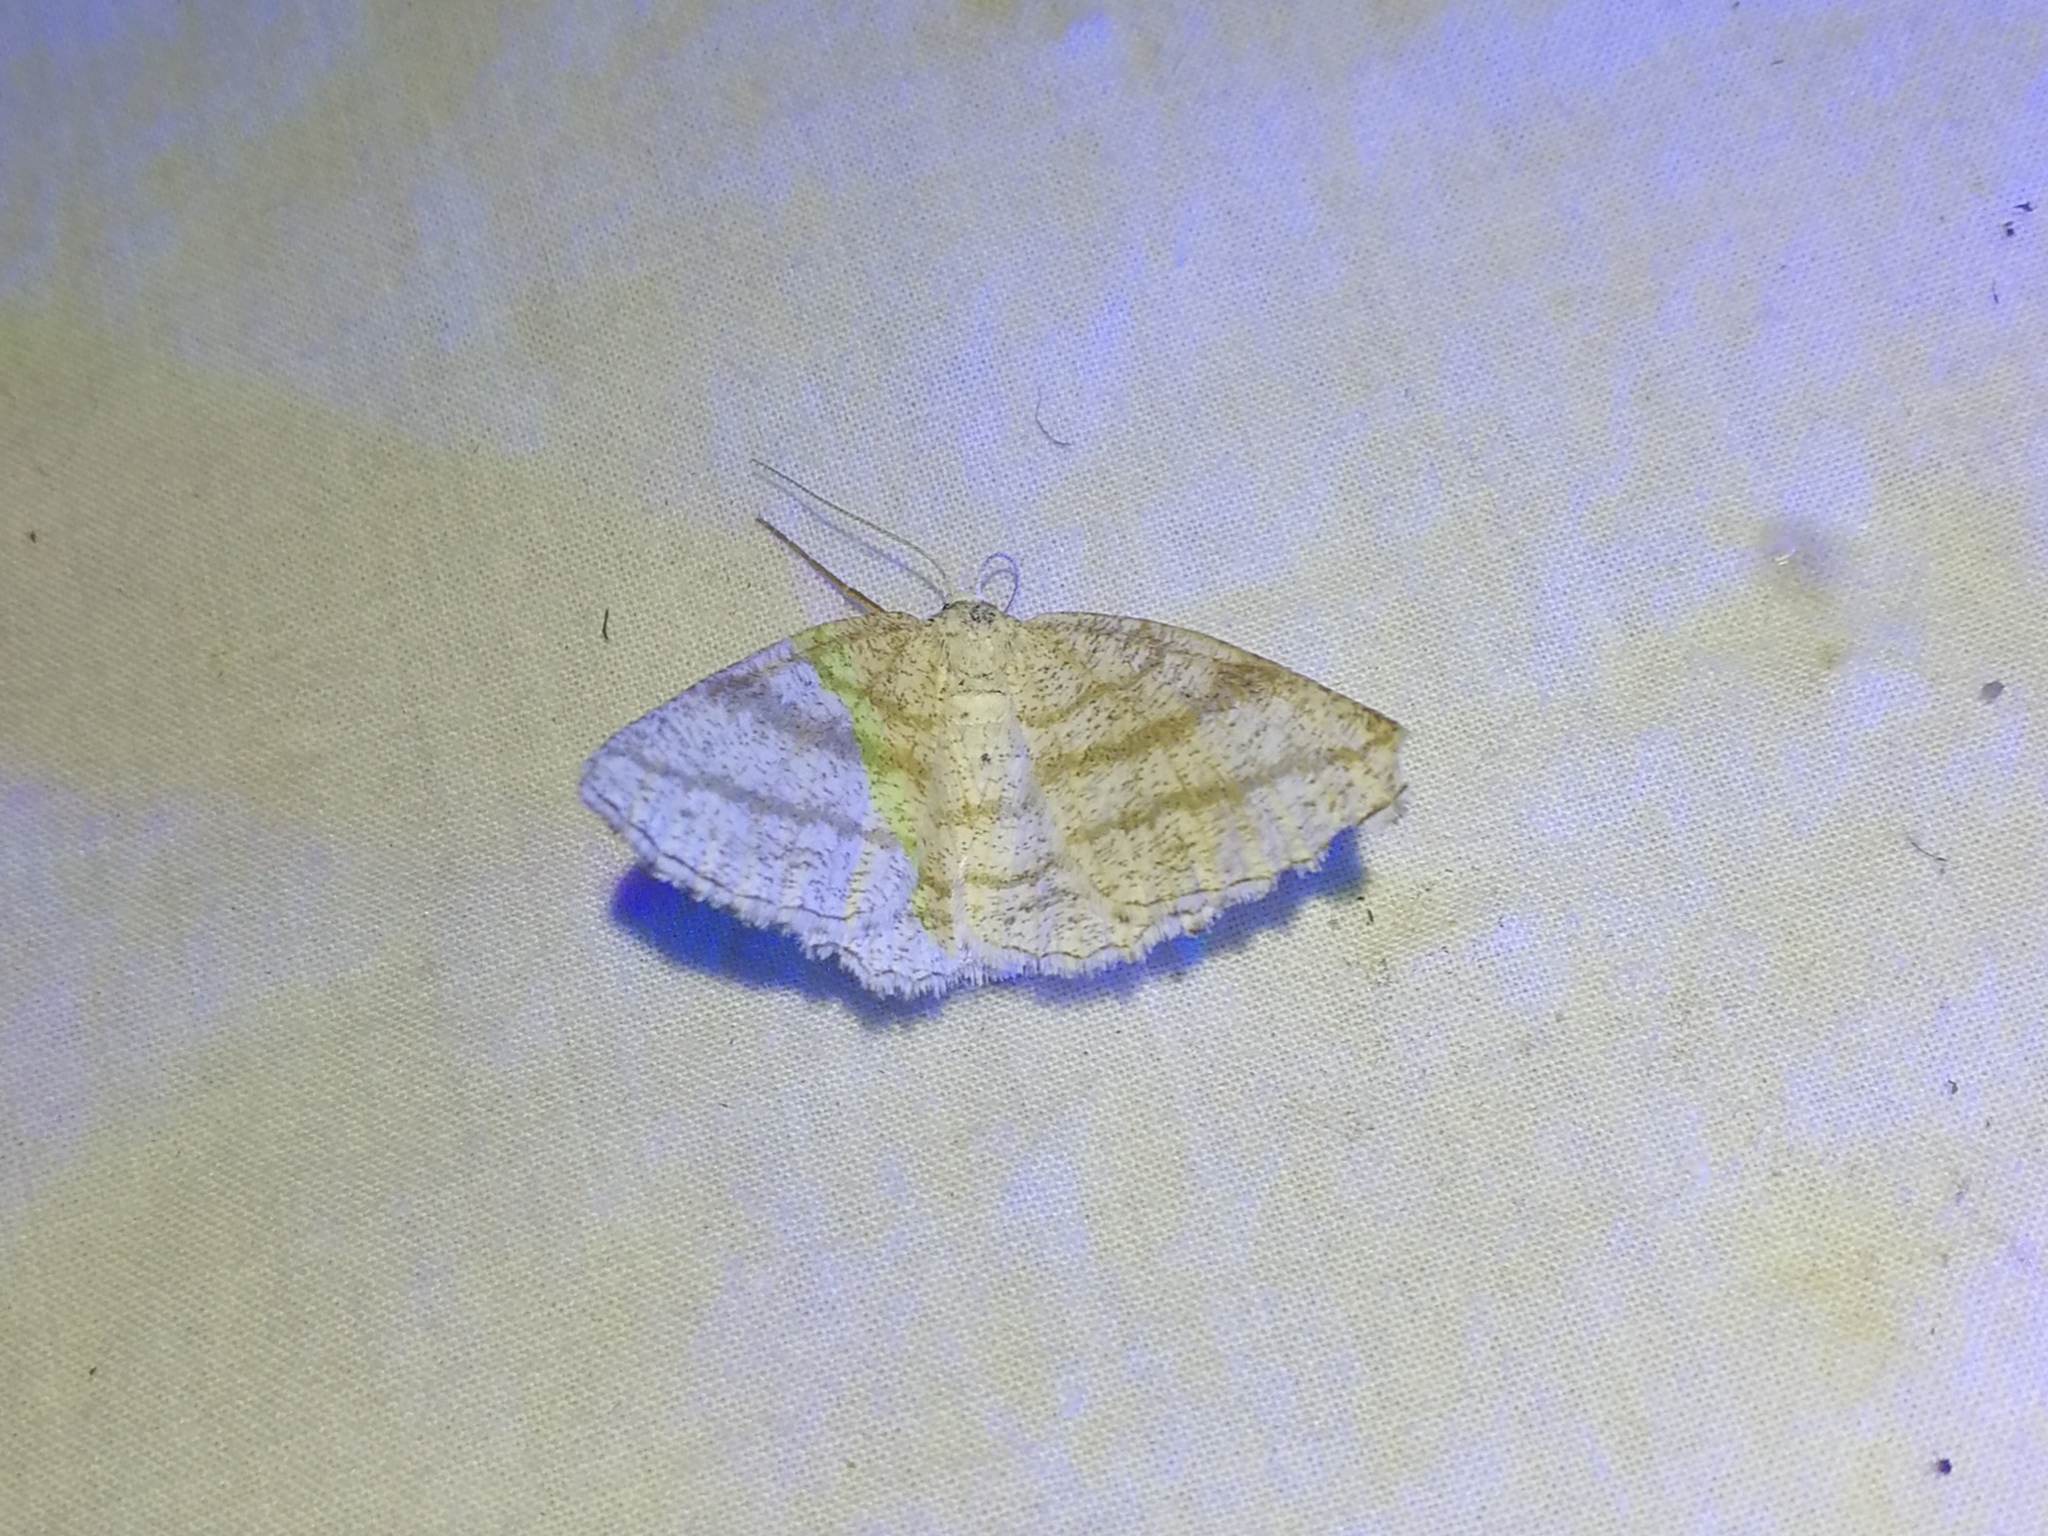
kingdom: Animalia
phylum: Arthropoda
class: Insecta
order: Lepidoptera
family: Geometridae
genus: Perconia
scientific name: Perconia strigillaria
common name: Grass wave
